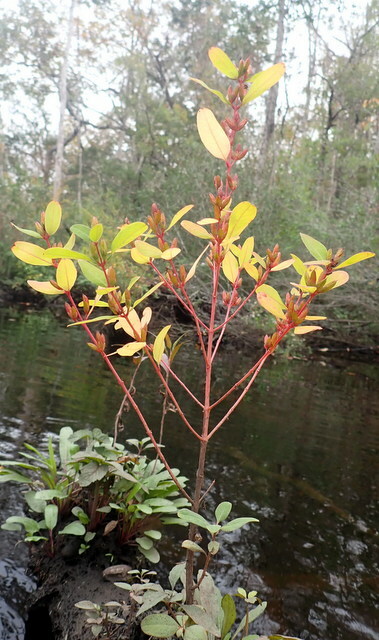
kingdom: Plantae
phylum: Tracheophyta
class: Magnoliopsida
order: Malpighiales
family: Hypericaceae
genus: Triadenum
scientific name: Triadenum walteri
